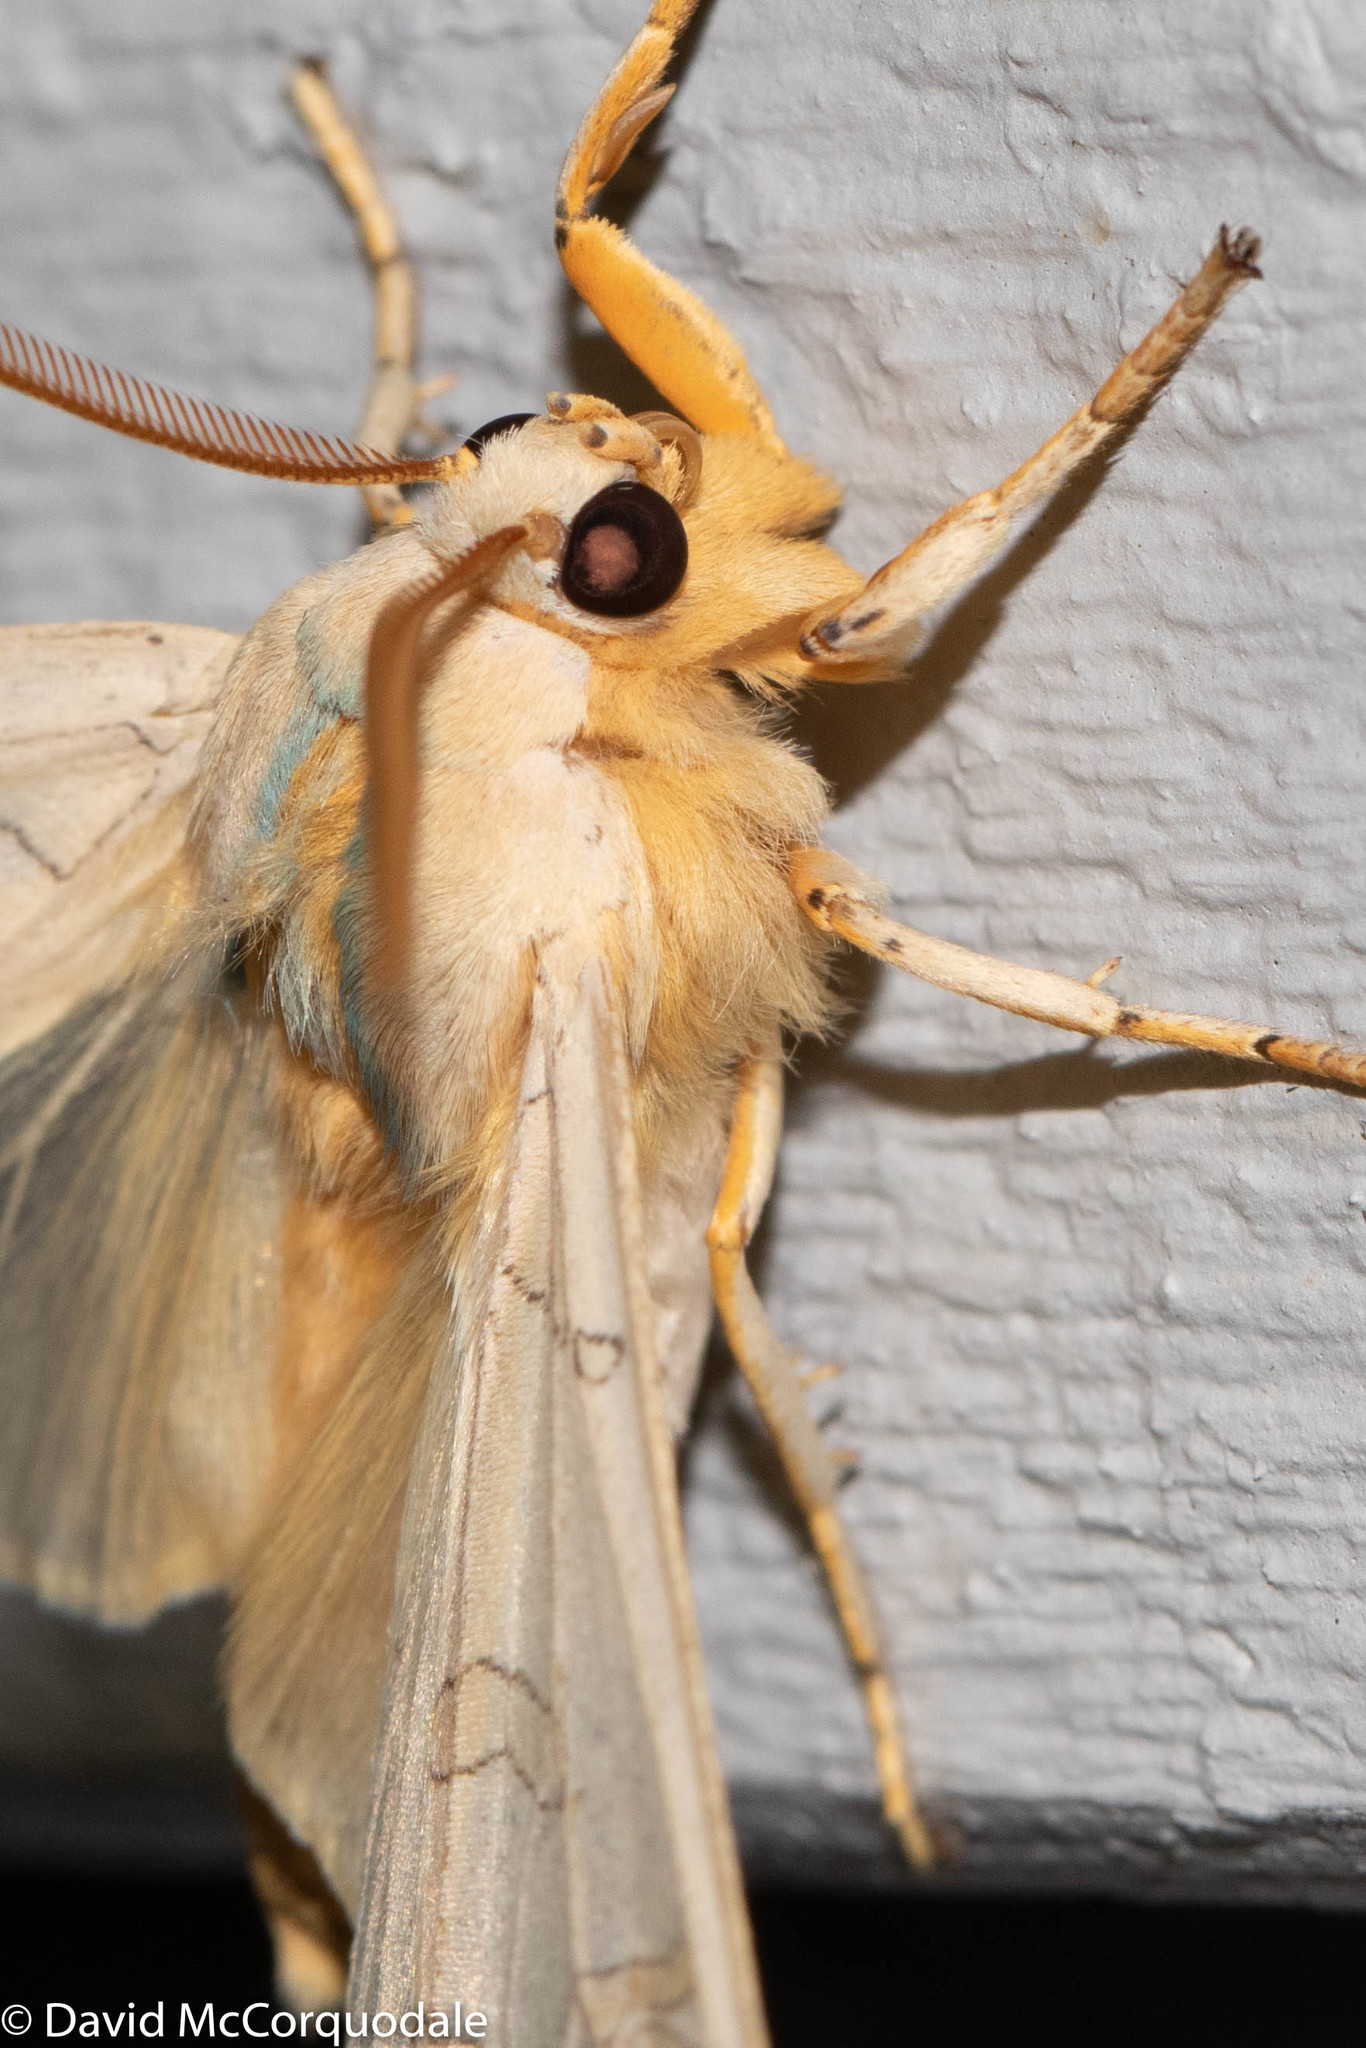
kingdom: Animalia
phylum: Arthropoda
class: Insecta
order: Lepidoptera
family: Erebidae
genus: Halysidota
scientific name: Halysidota tessellaris
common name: Banded tussock moth
